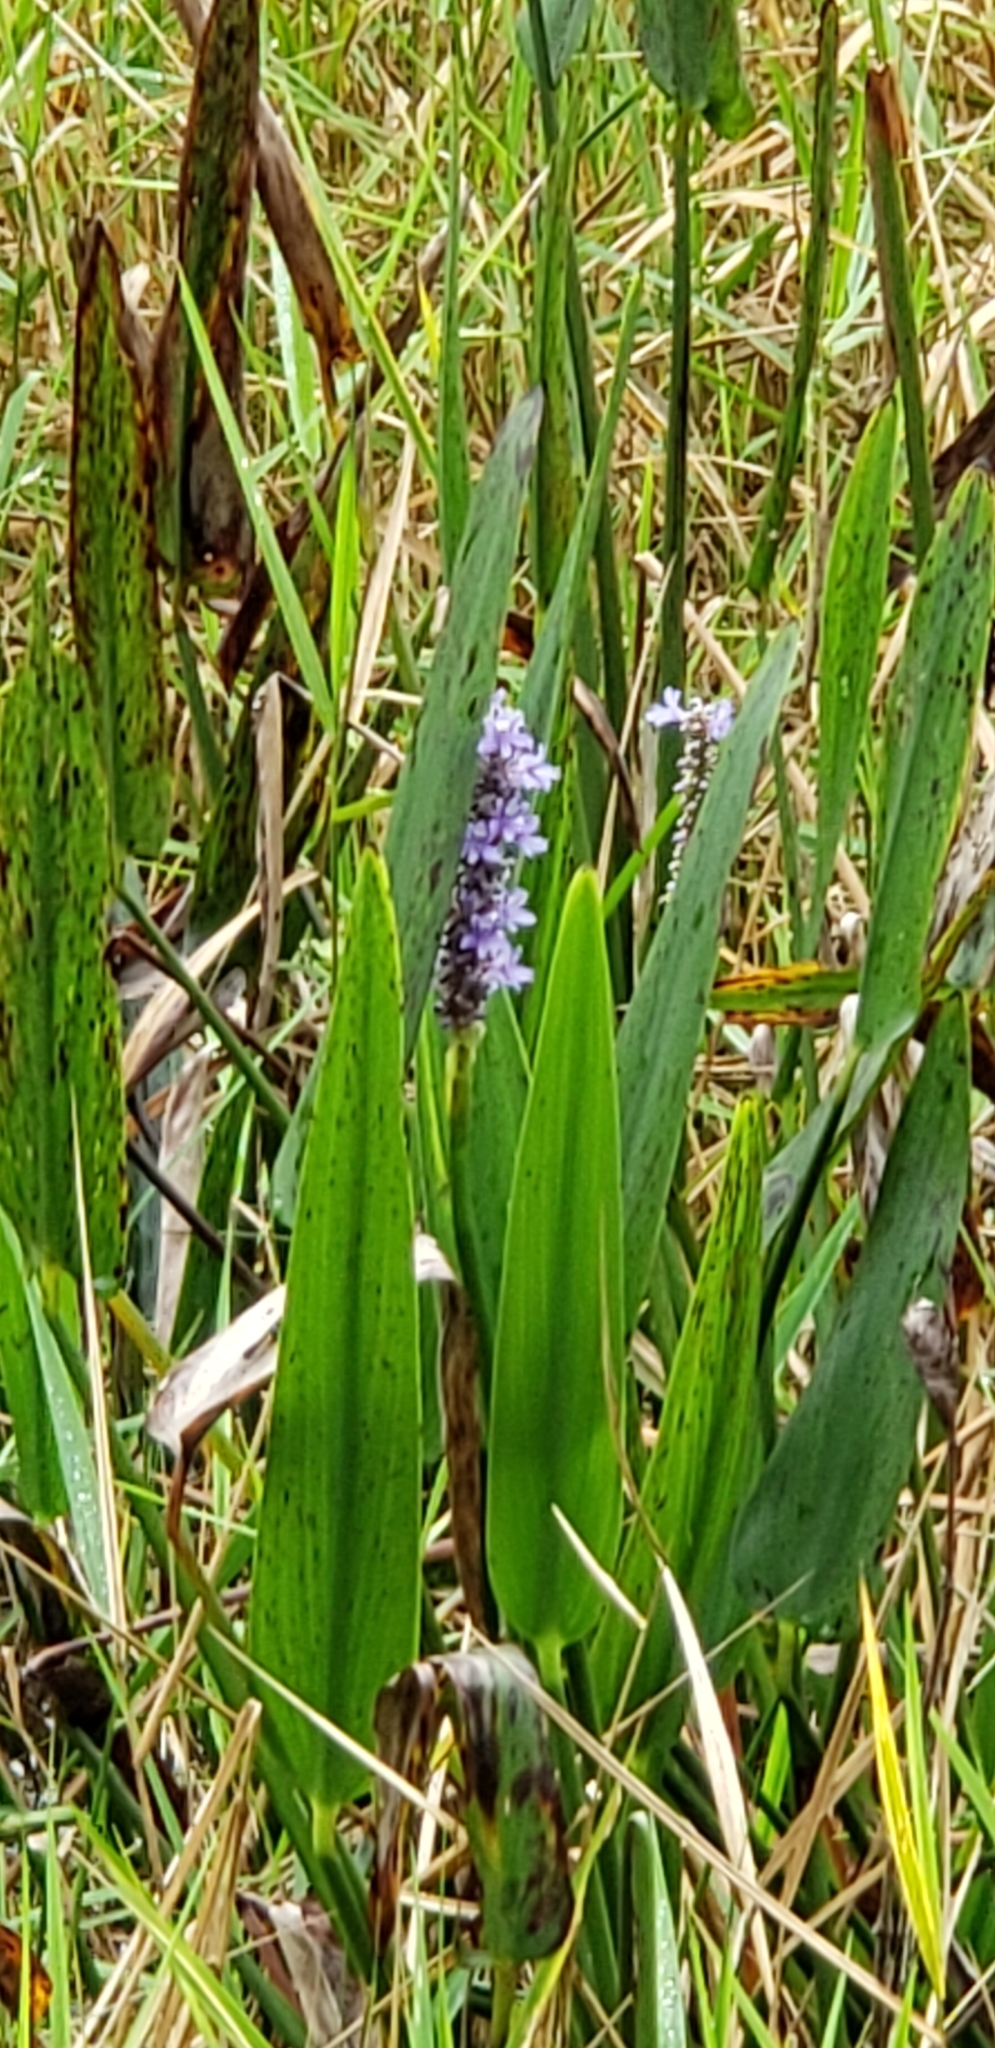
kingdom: Plantae
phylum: Tracheophyta
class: Liliopsida
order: Commelinales
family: Pontederiaceae
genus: Pontederia
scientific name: Pontederia cordata
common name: Pickerelweed
